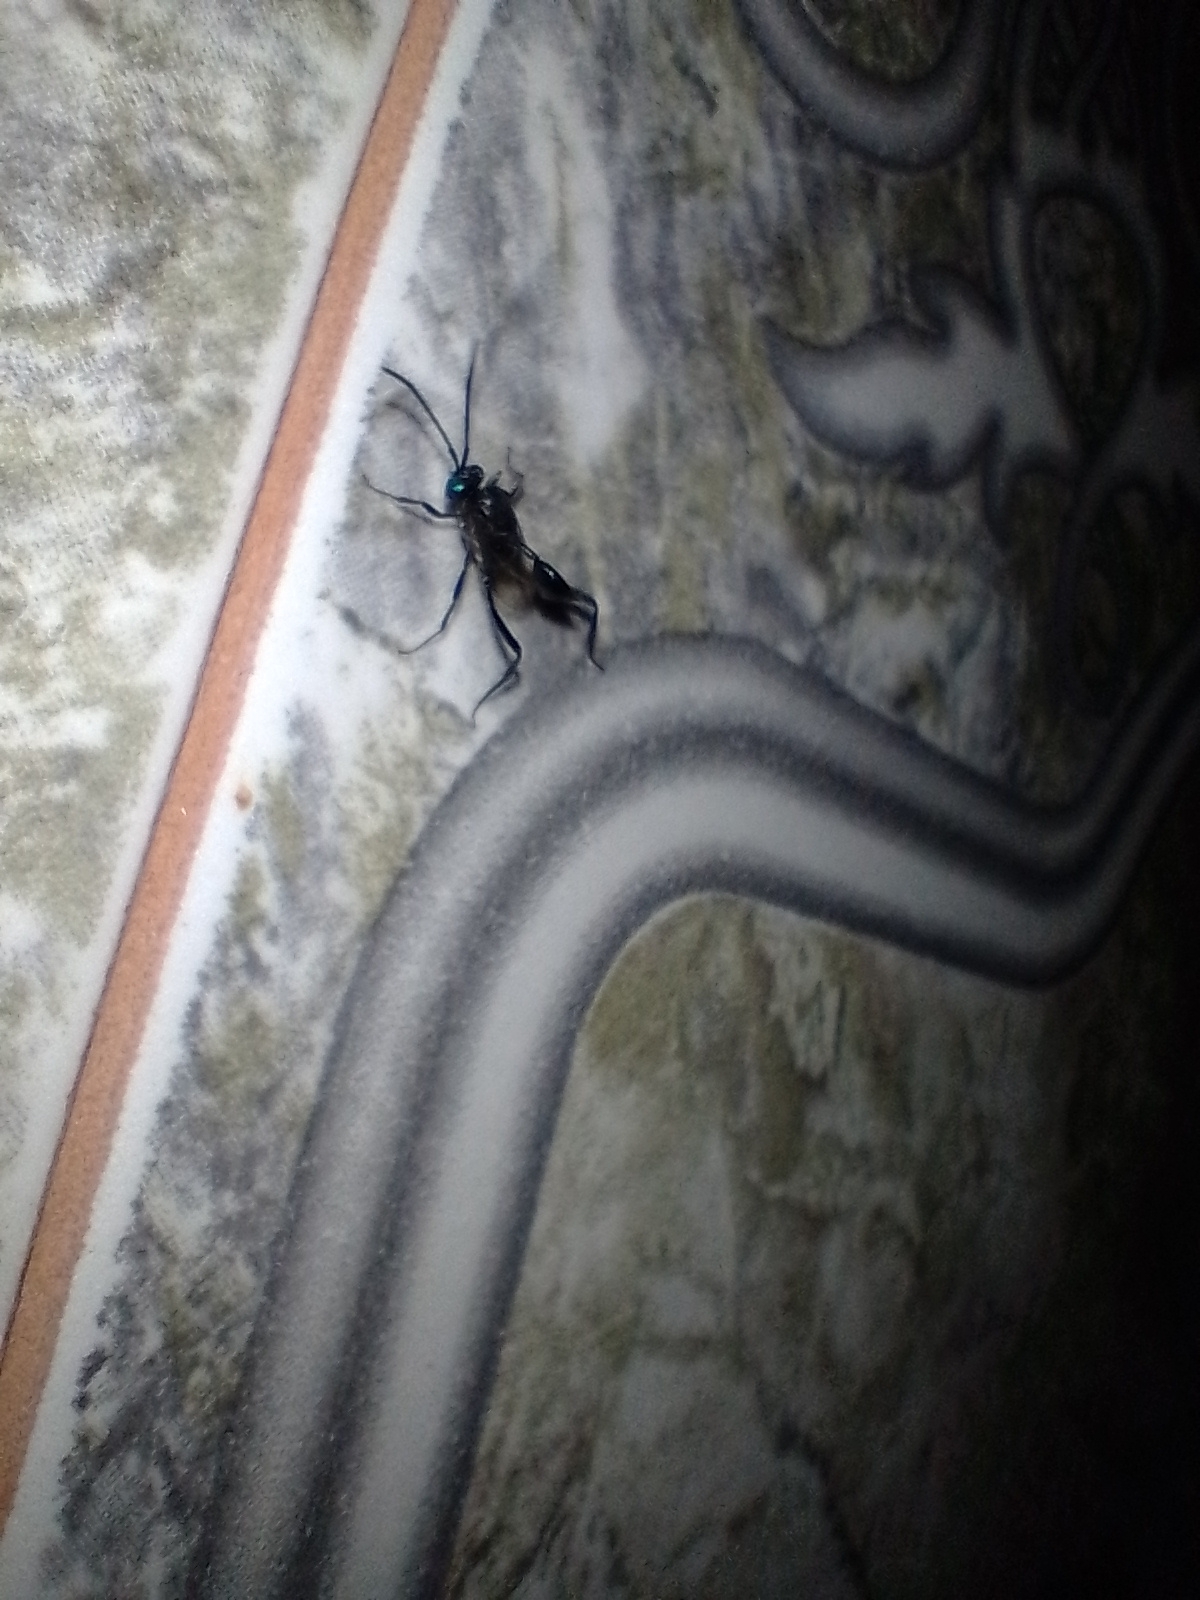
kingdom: Animalia
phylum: Arthropoda
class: Insecta
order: Hymenoptera
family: Evaniidae
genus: Evania
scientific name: Evania appendigaster
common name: Ensign wasp
